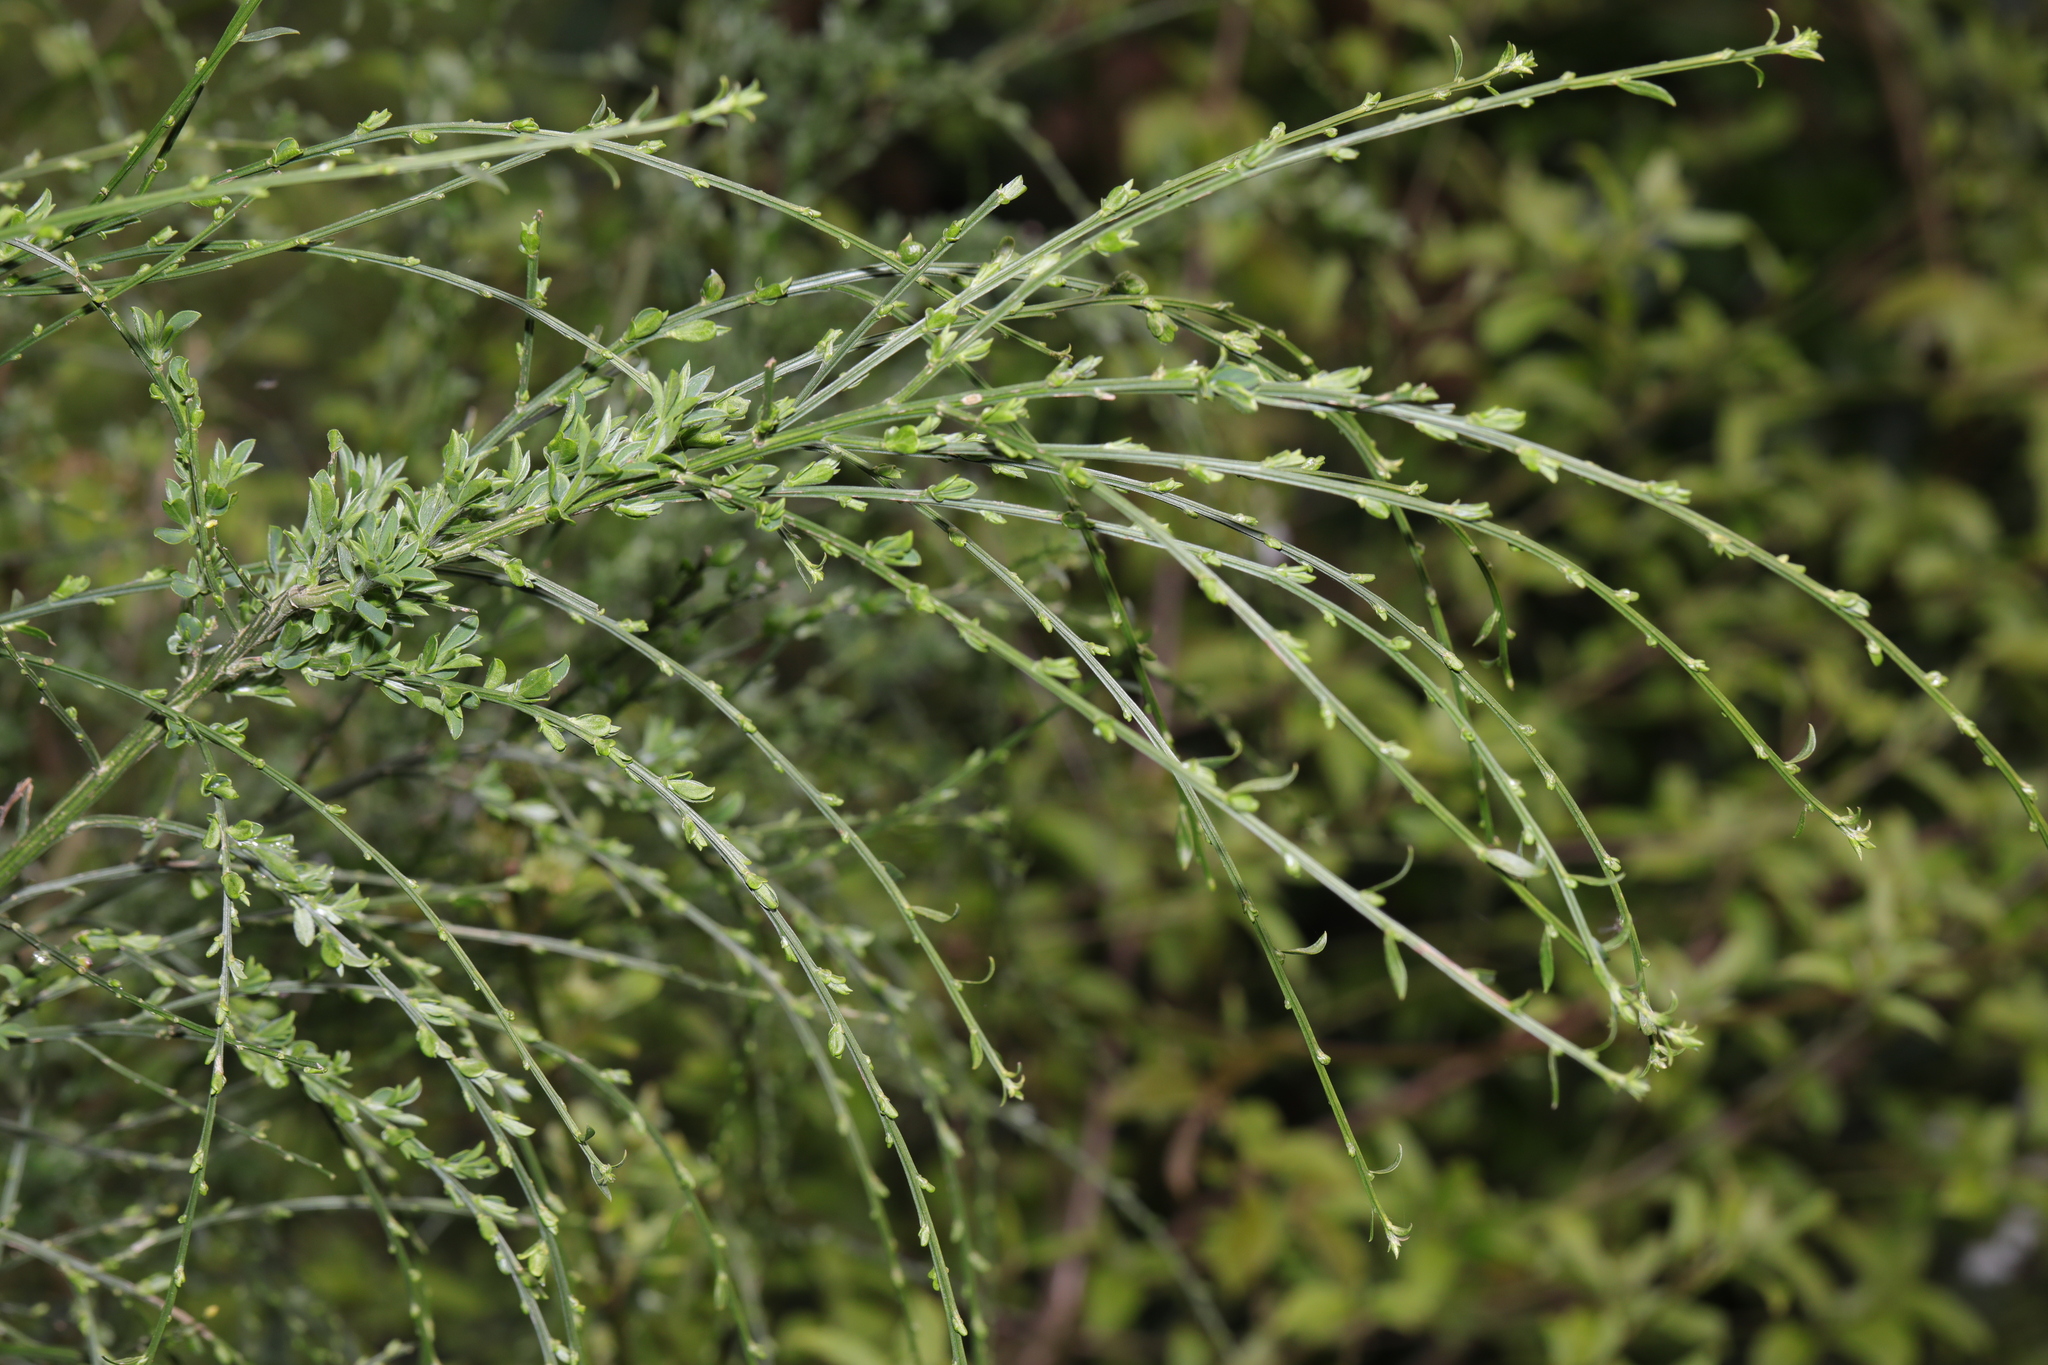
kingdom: Plantae
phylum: Tracheophyta
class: Magnoliopsida
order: Fabales
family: Fabaceae
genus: Cytisus
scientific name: Cytisus scoparius
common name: Scotch broom
